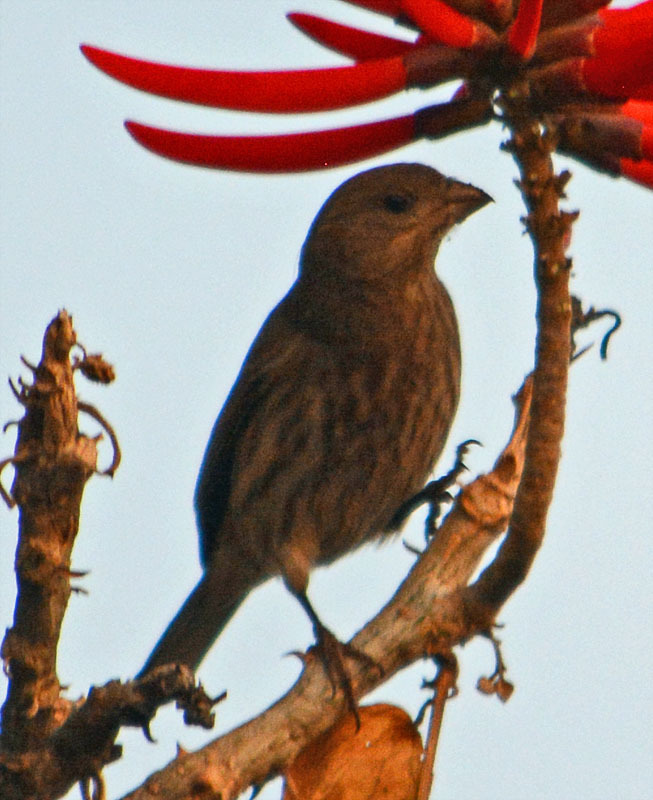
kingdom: Animalia
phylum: Chordata
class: Aves
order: Passeriformes
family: Fringillidae
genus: Haemorhous
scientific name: Haemorhous mexicanus
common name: House finch
